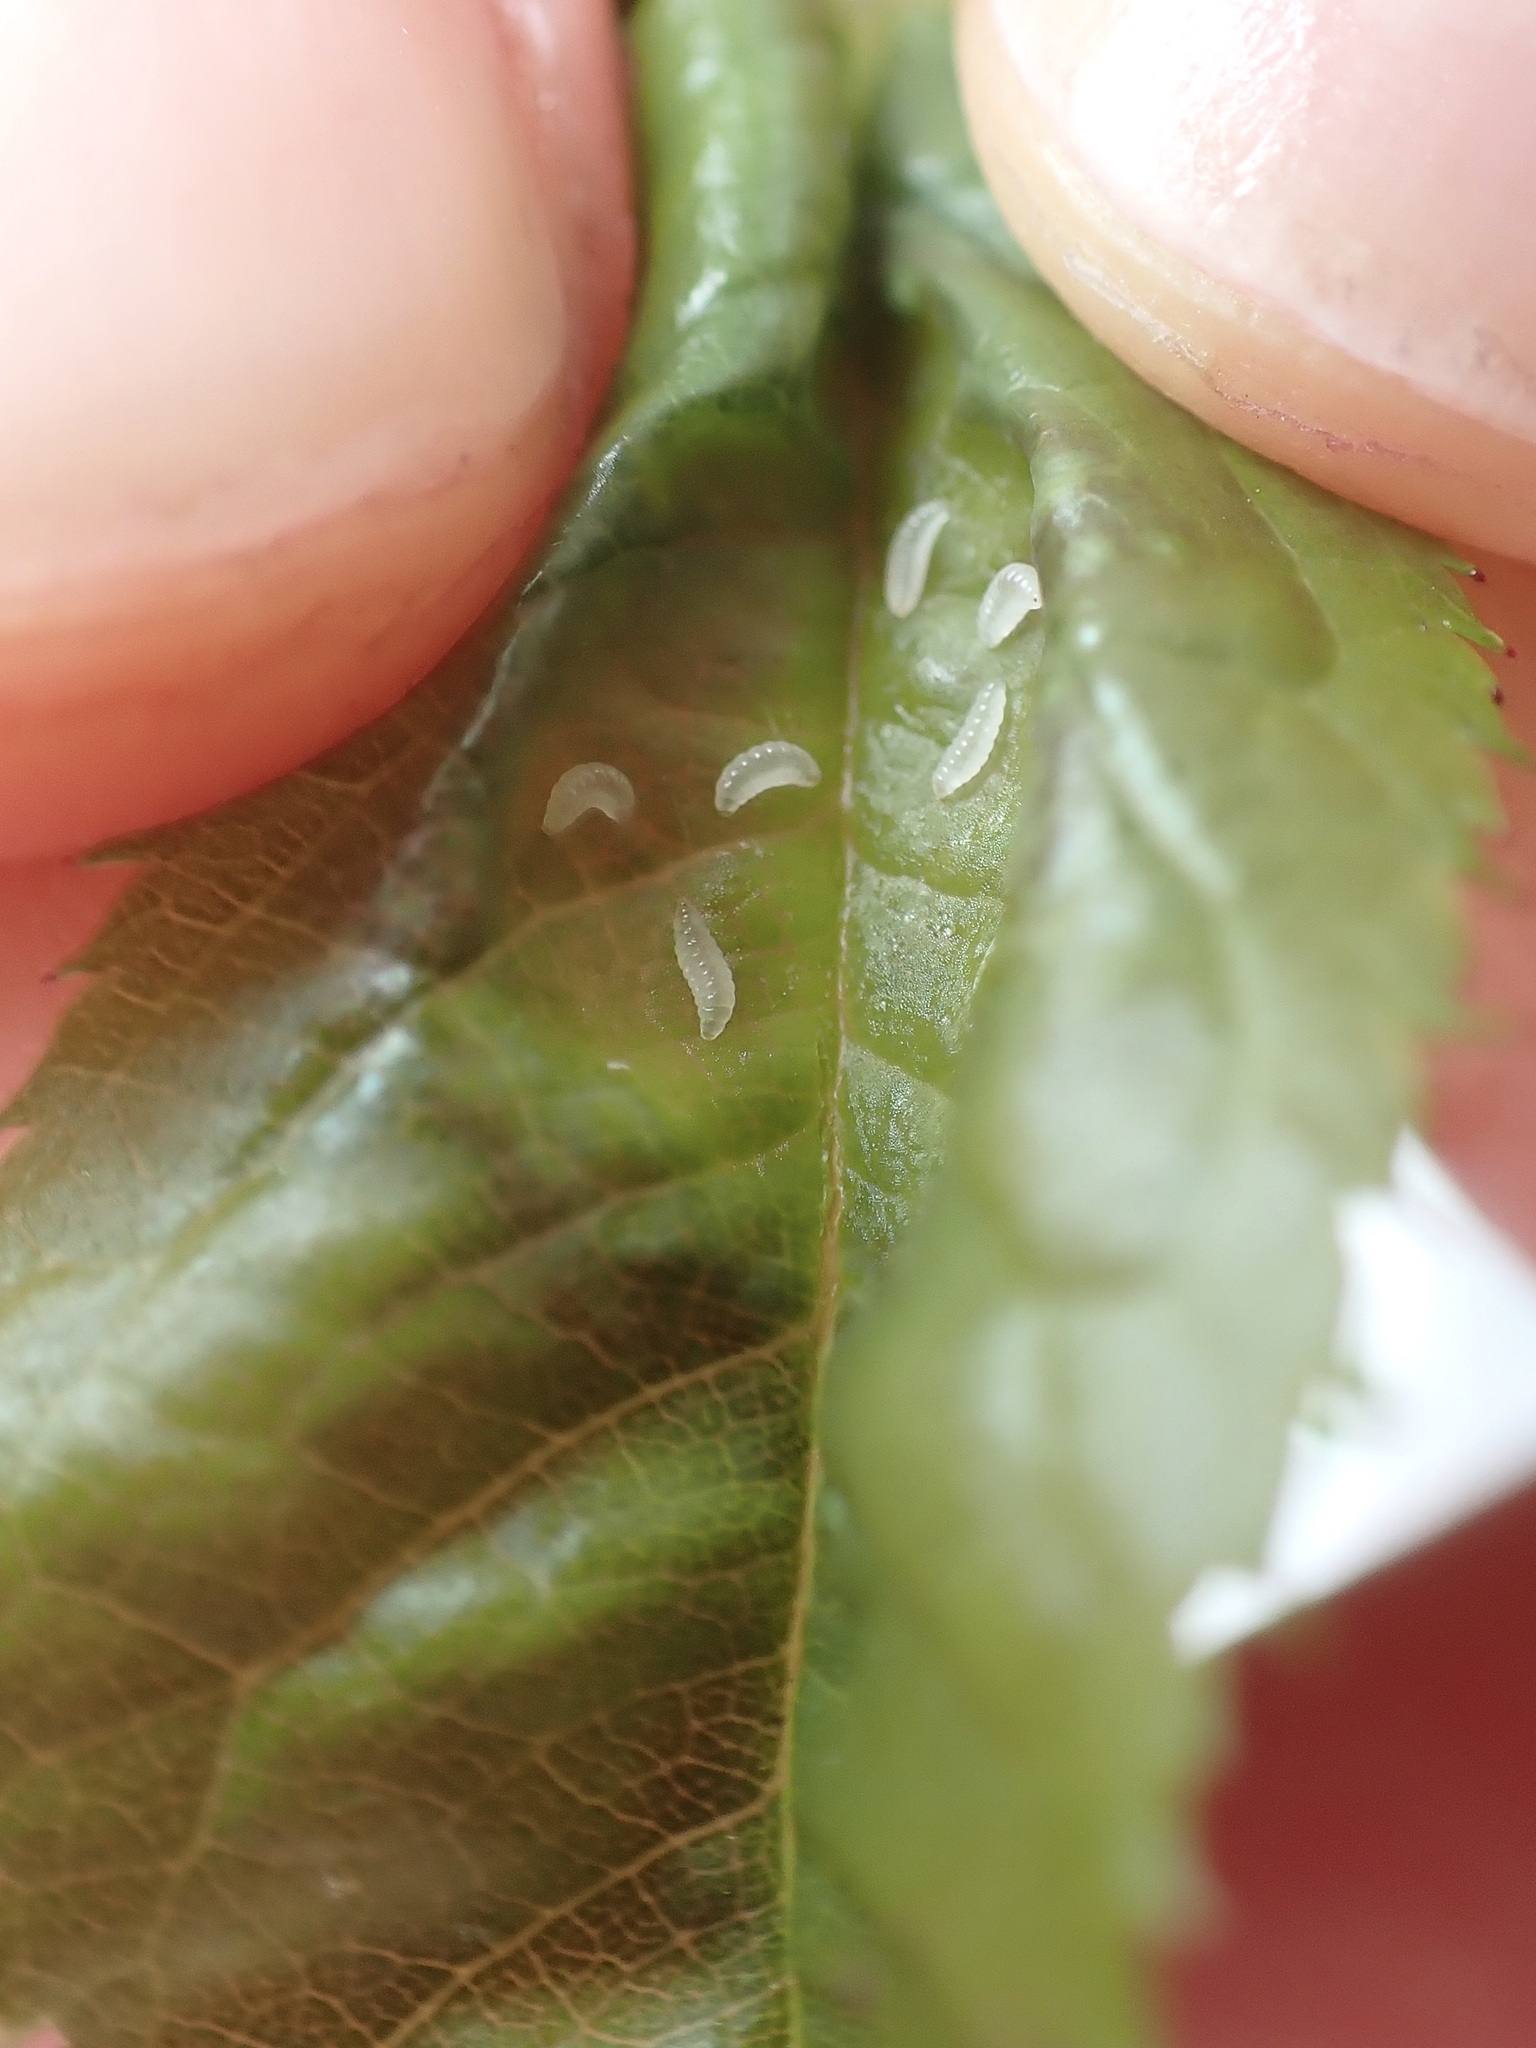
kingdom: Animalia
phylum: Arthropoda
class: Insecta
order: Diptera
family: Cecidomyiidae
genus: Wachtliella
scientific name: Wachtliella rosae
